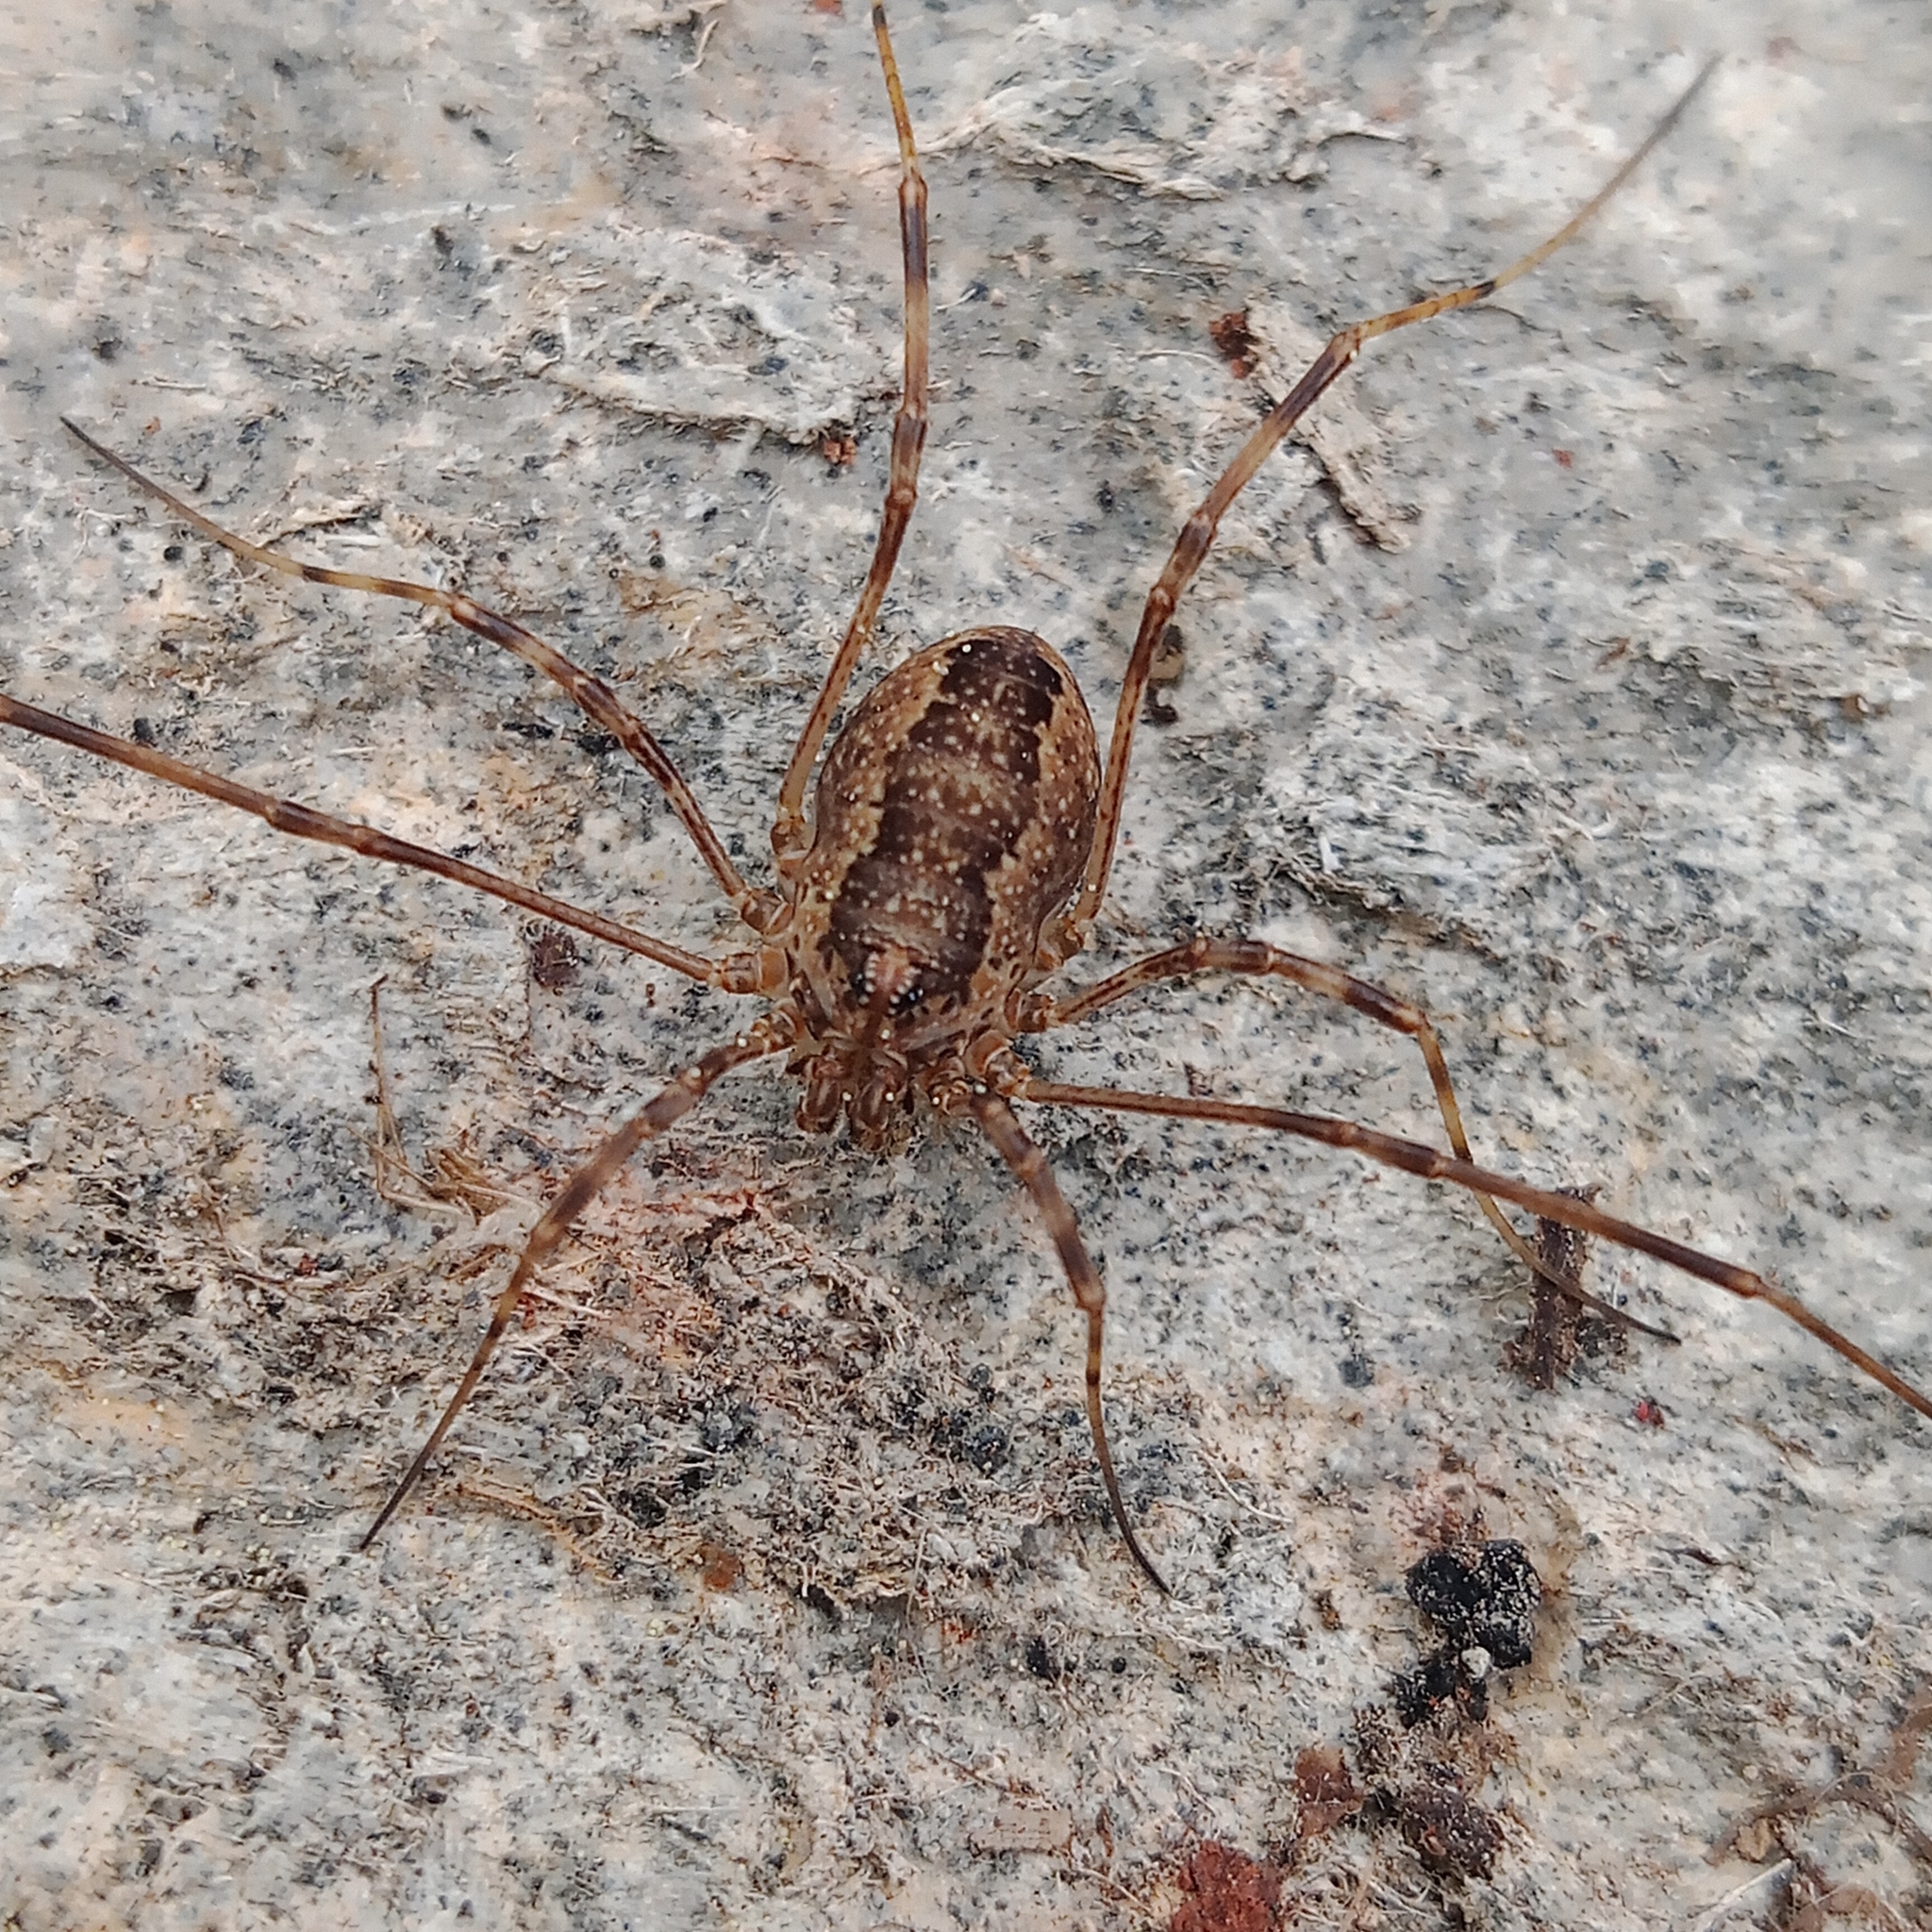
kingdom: Animalia
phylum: Arthropoda
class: Arachnida
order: Opiliones
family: Phalangiidae
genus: Rilaena
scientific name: Rilaena triangularis
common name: Spring harvestman
